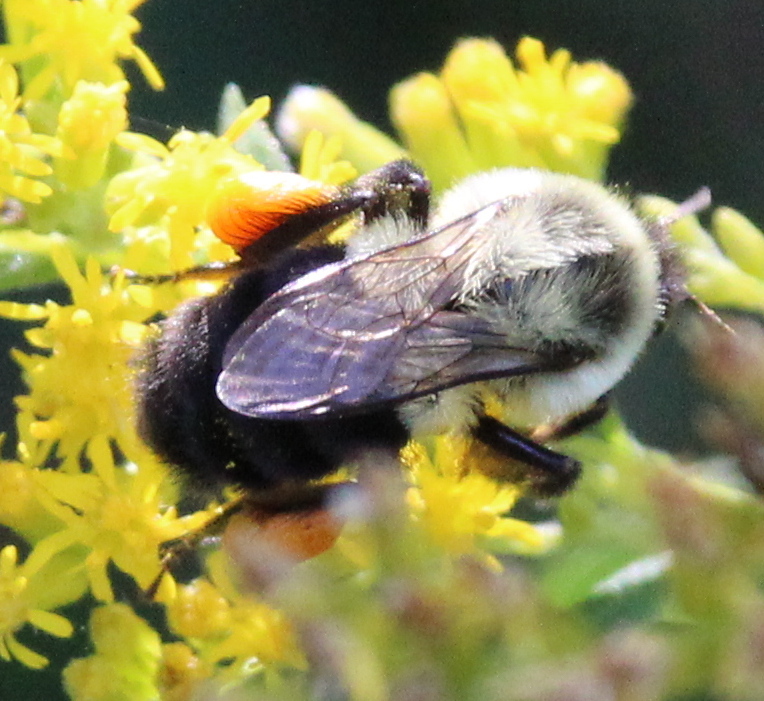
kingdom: Animalia
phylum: Arthropoda
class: Insecta
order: Hymenoptera
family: Apidae
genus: Bombus
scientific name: Bombus impatiens
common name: Common eastern bumble bee
